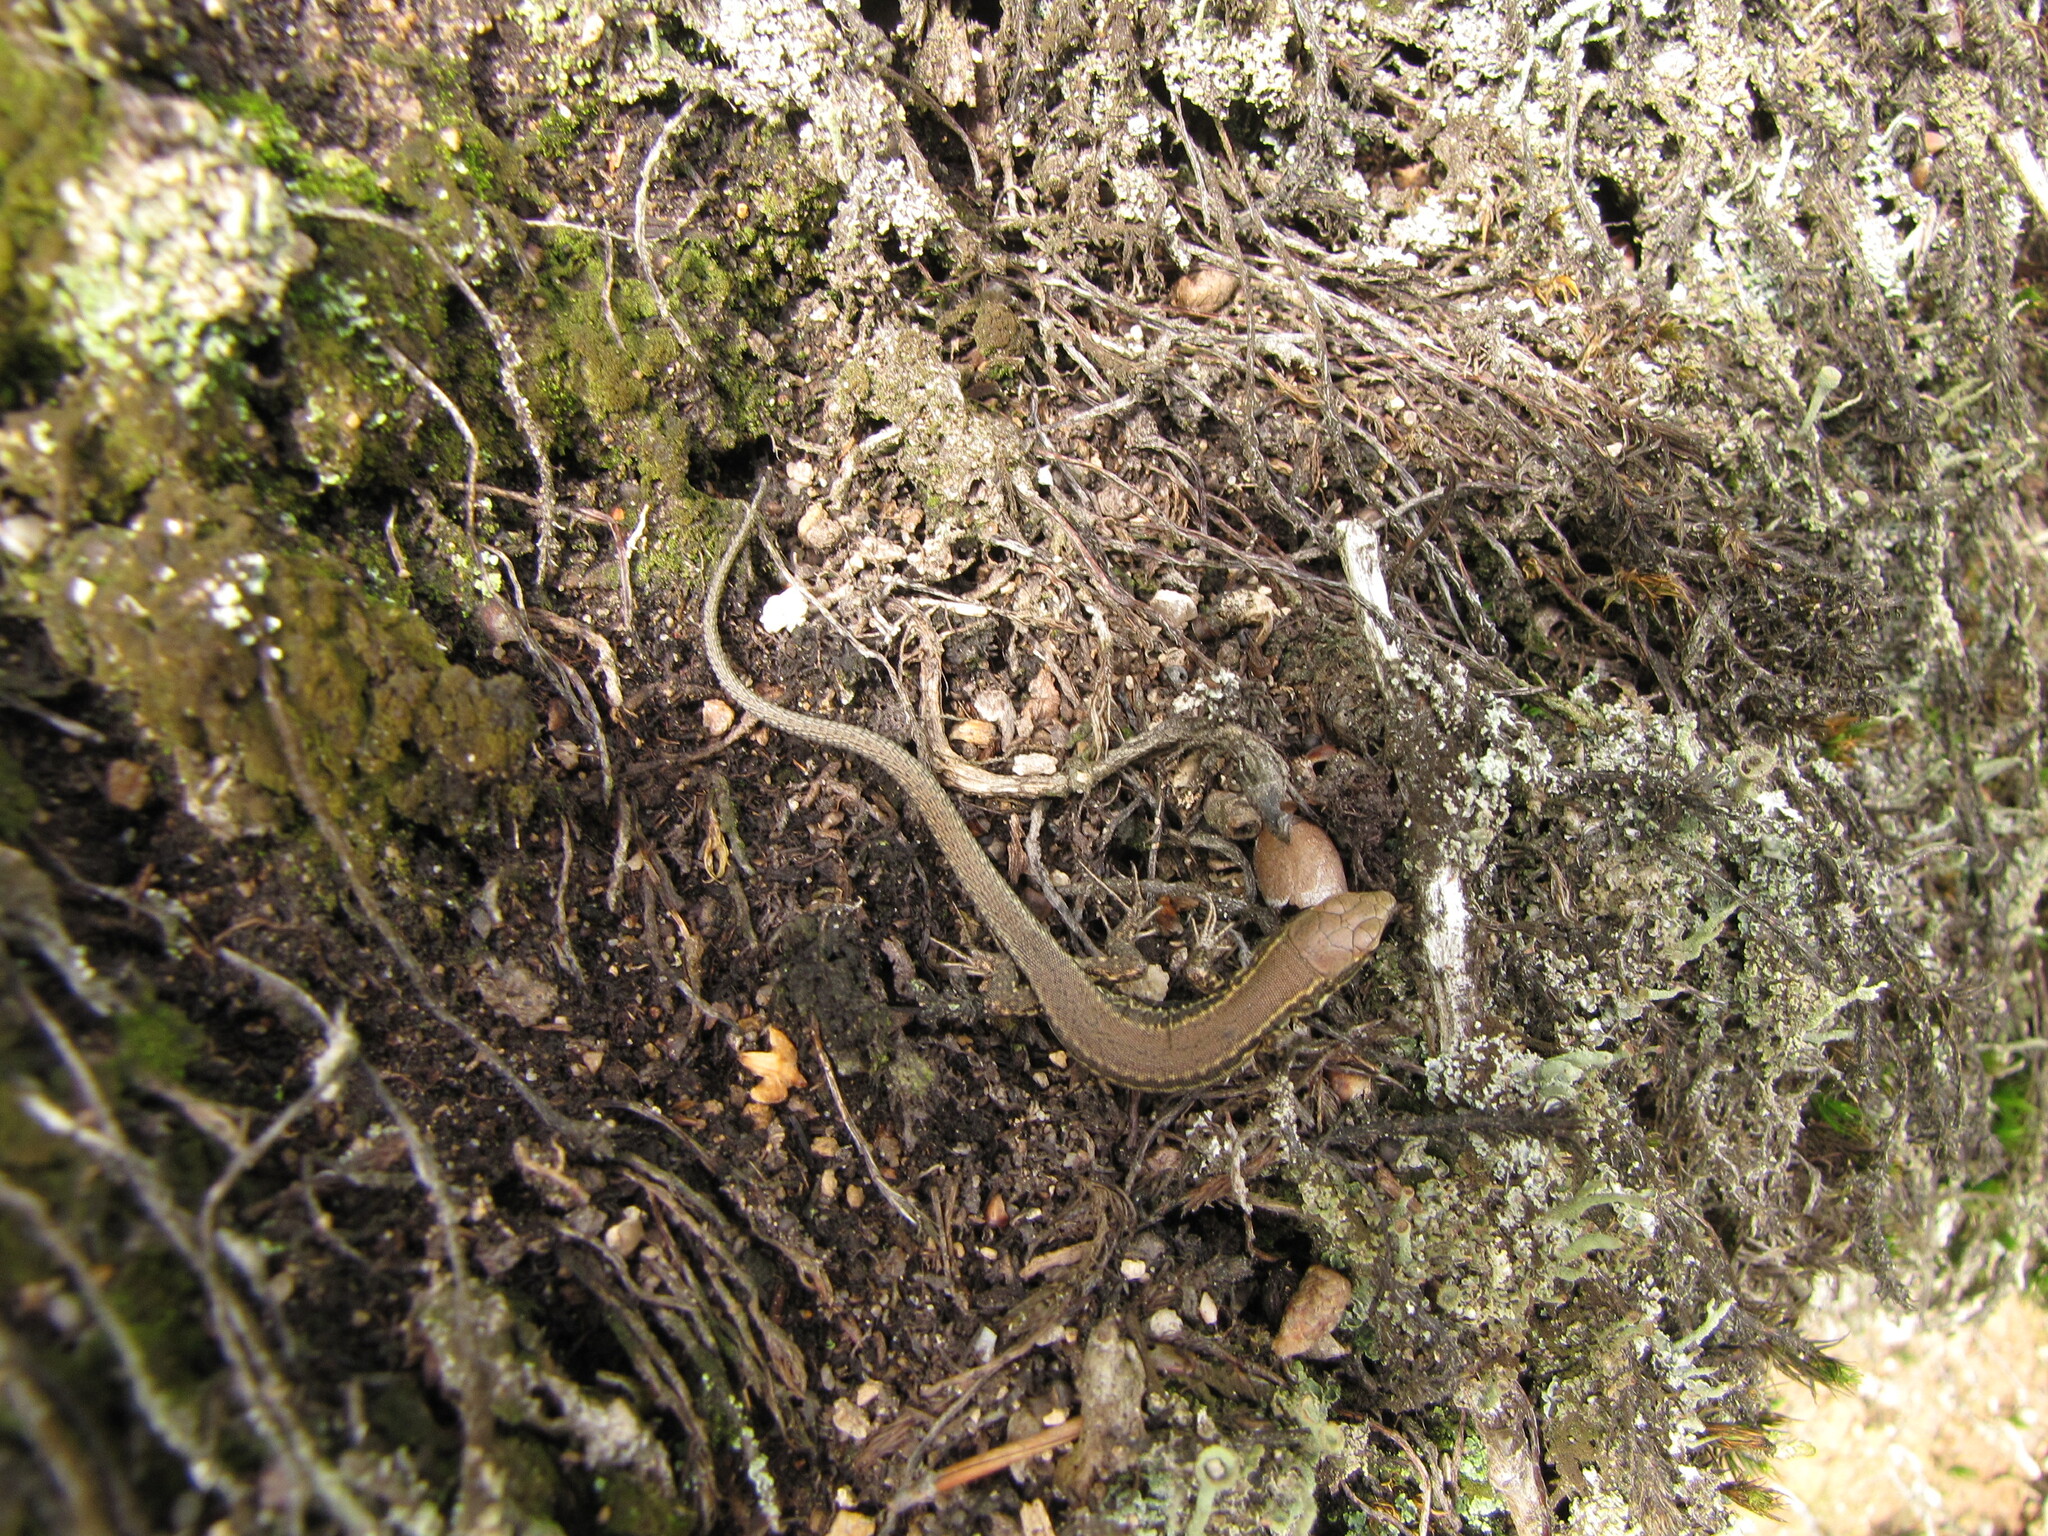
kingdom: Animalia
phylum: Chordata
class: Squamata
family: Lacertidae
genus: Podarcis
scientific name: Podarcis muralis
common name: Common wall lizard
